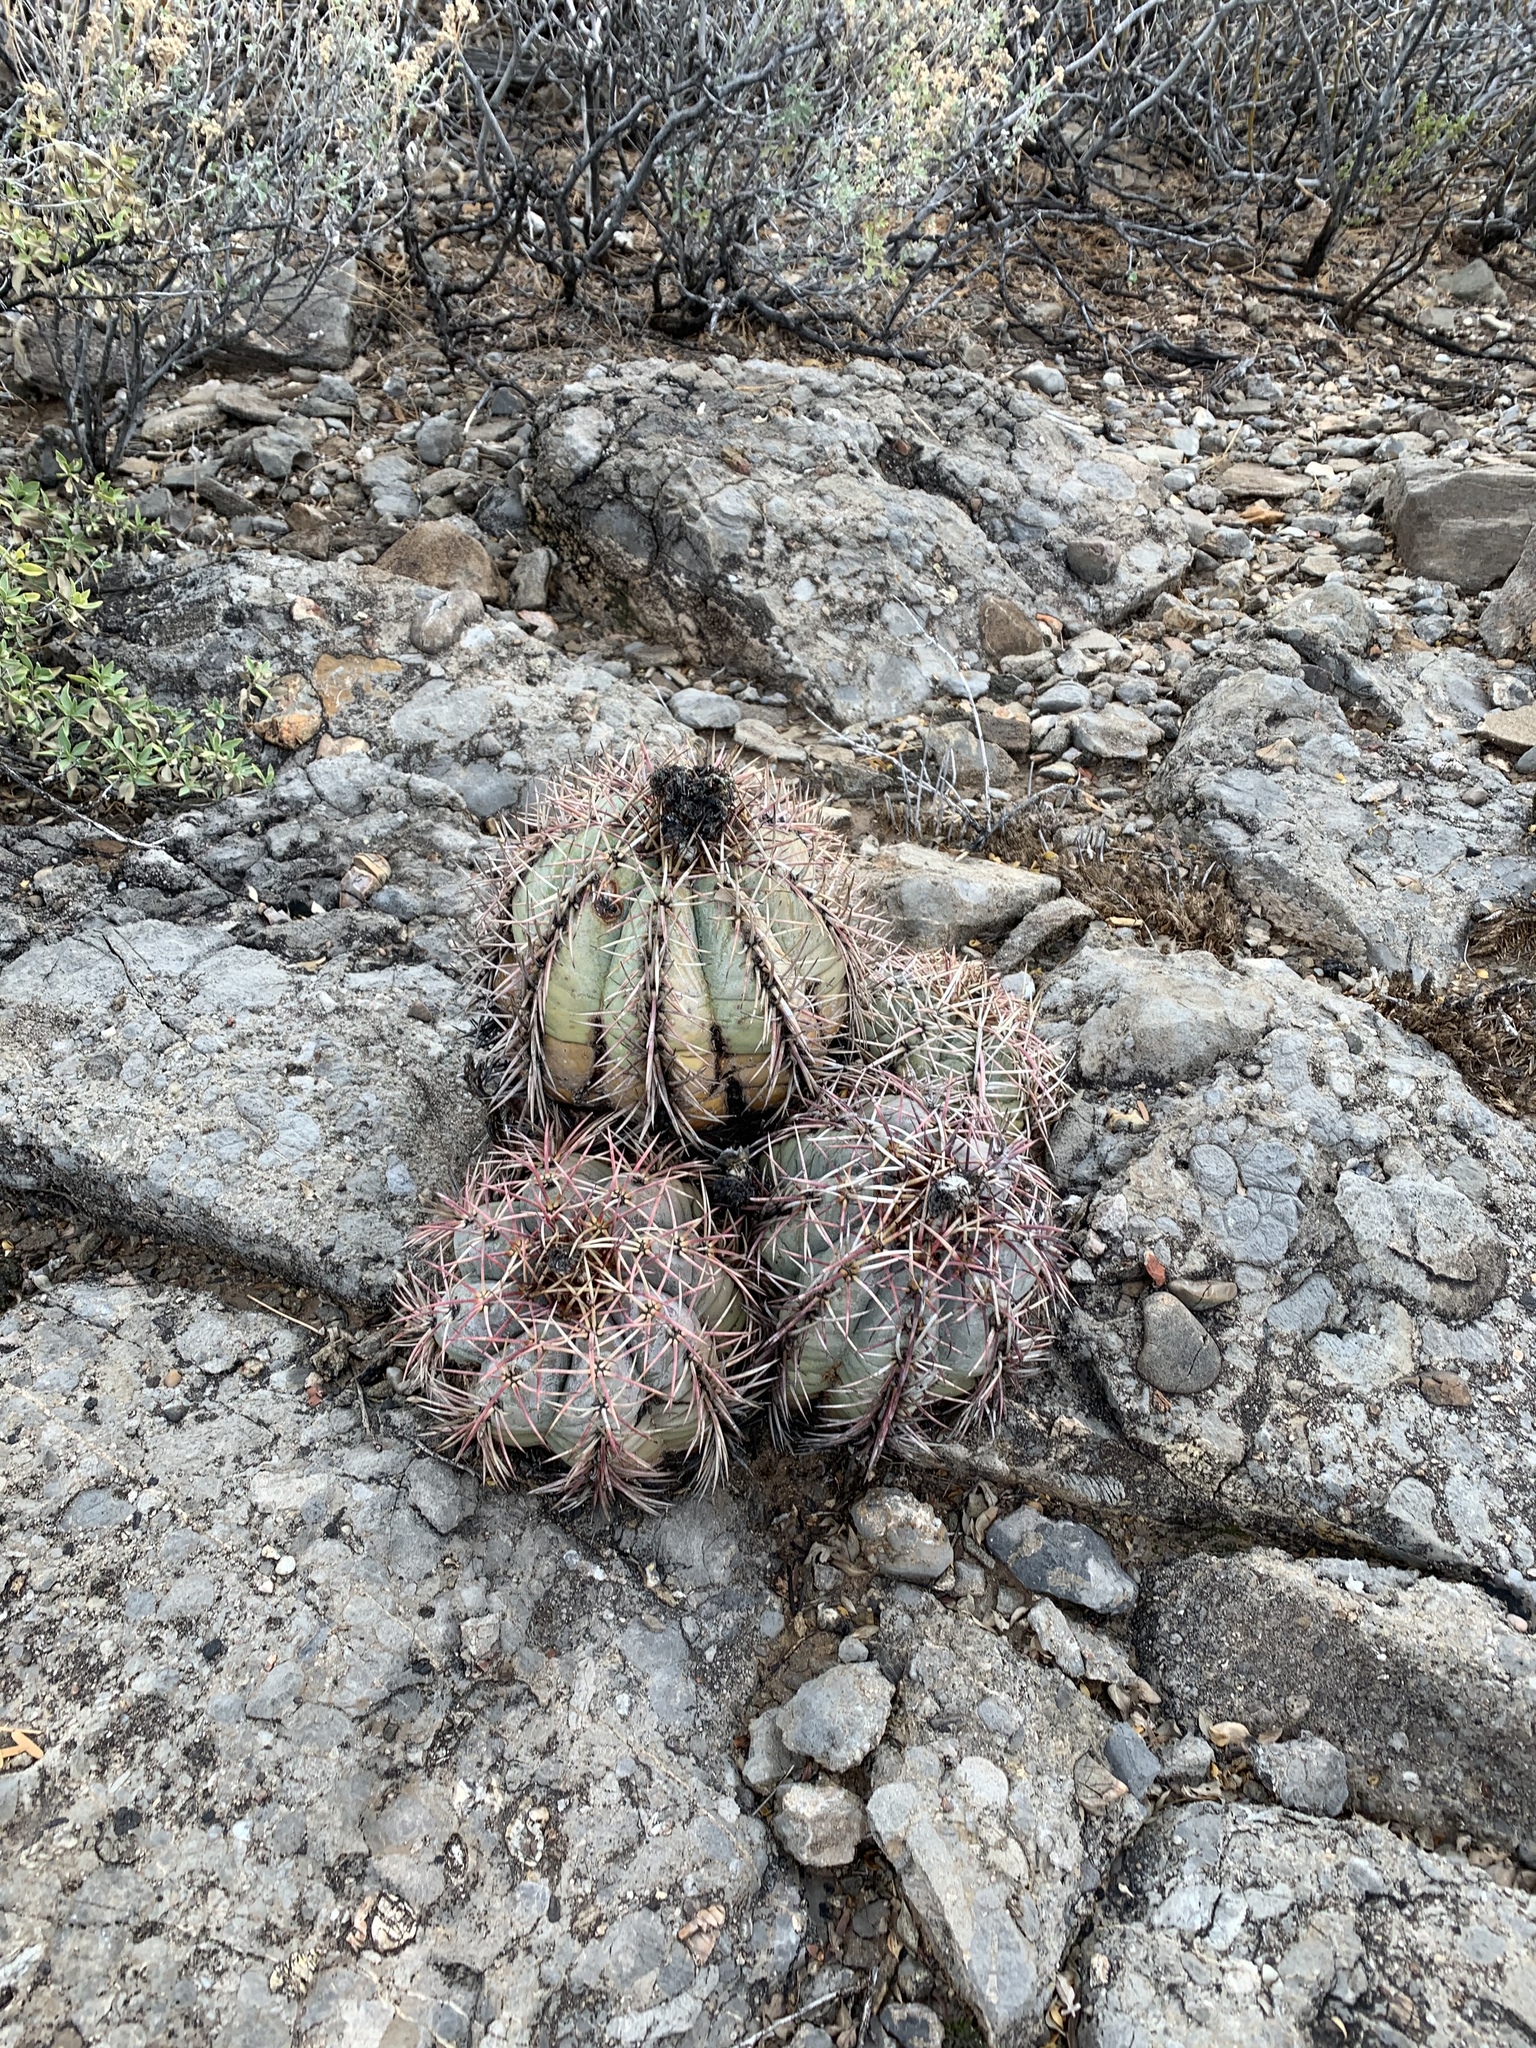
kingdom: Plantae
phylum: Tracheophyta
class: Magnoliopsida
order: Caryophyllales
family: Cactaceae
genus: Echinocactus
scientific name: Echinocactus horizonthalonius
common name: Devilshead
